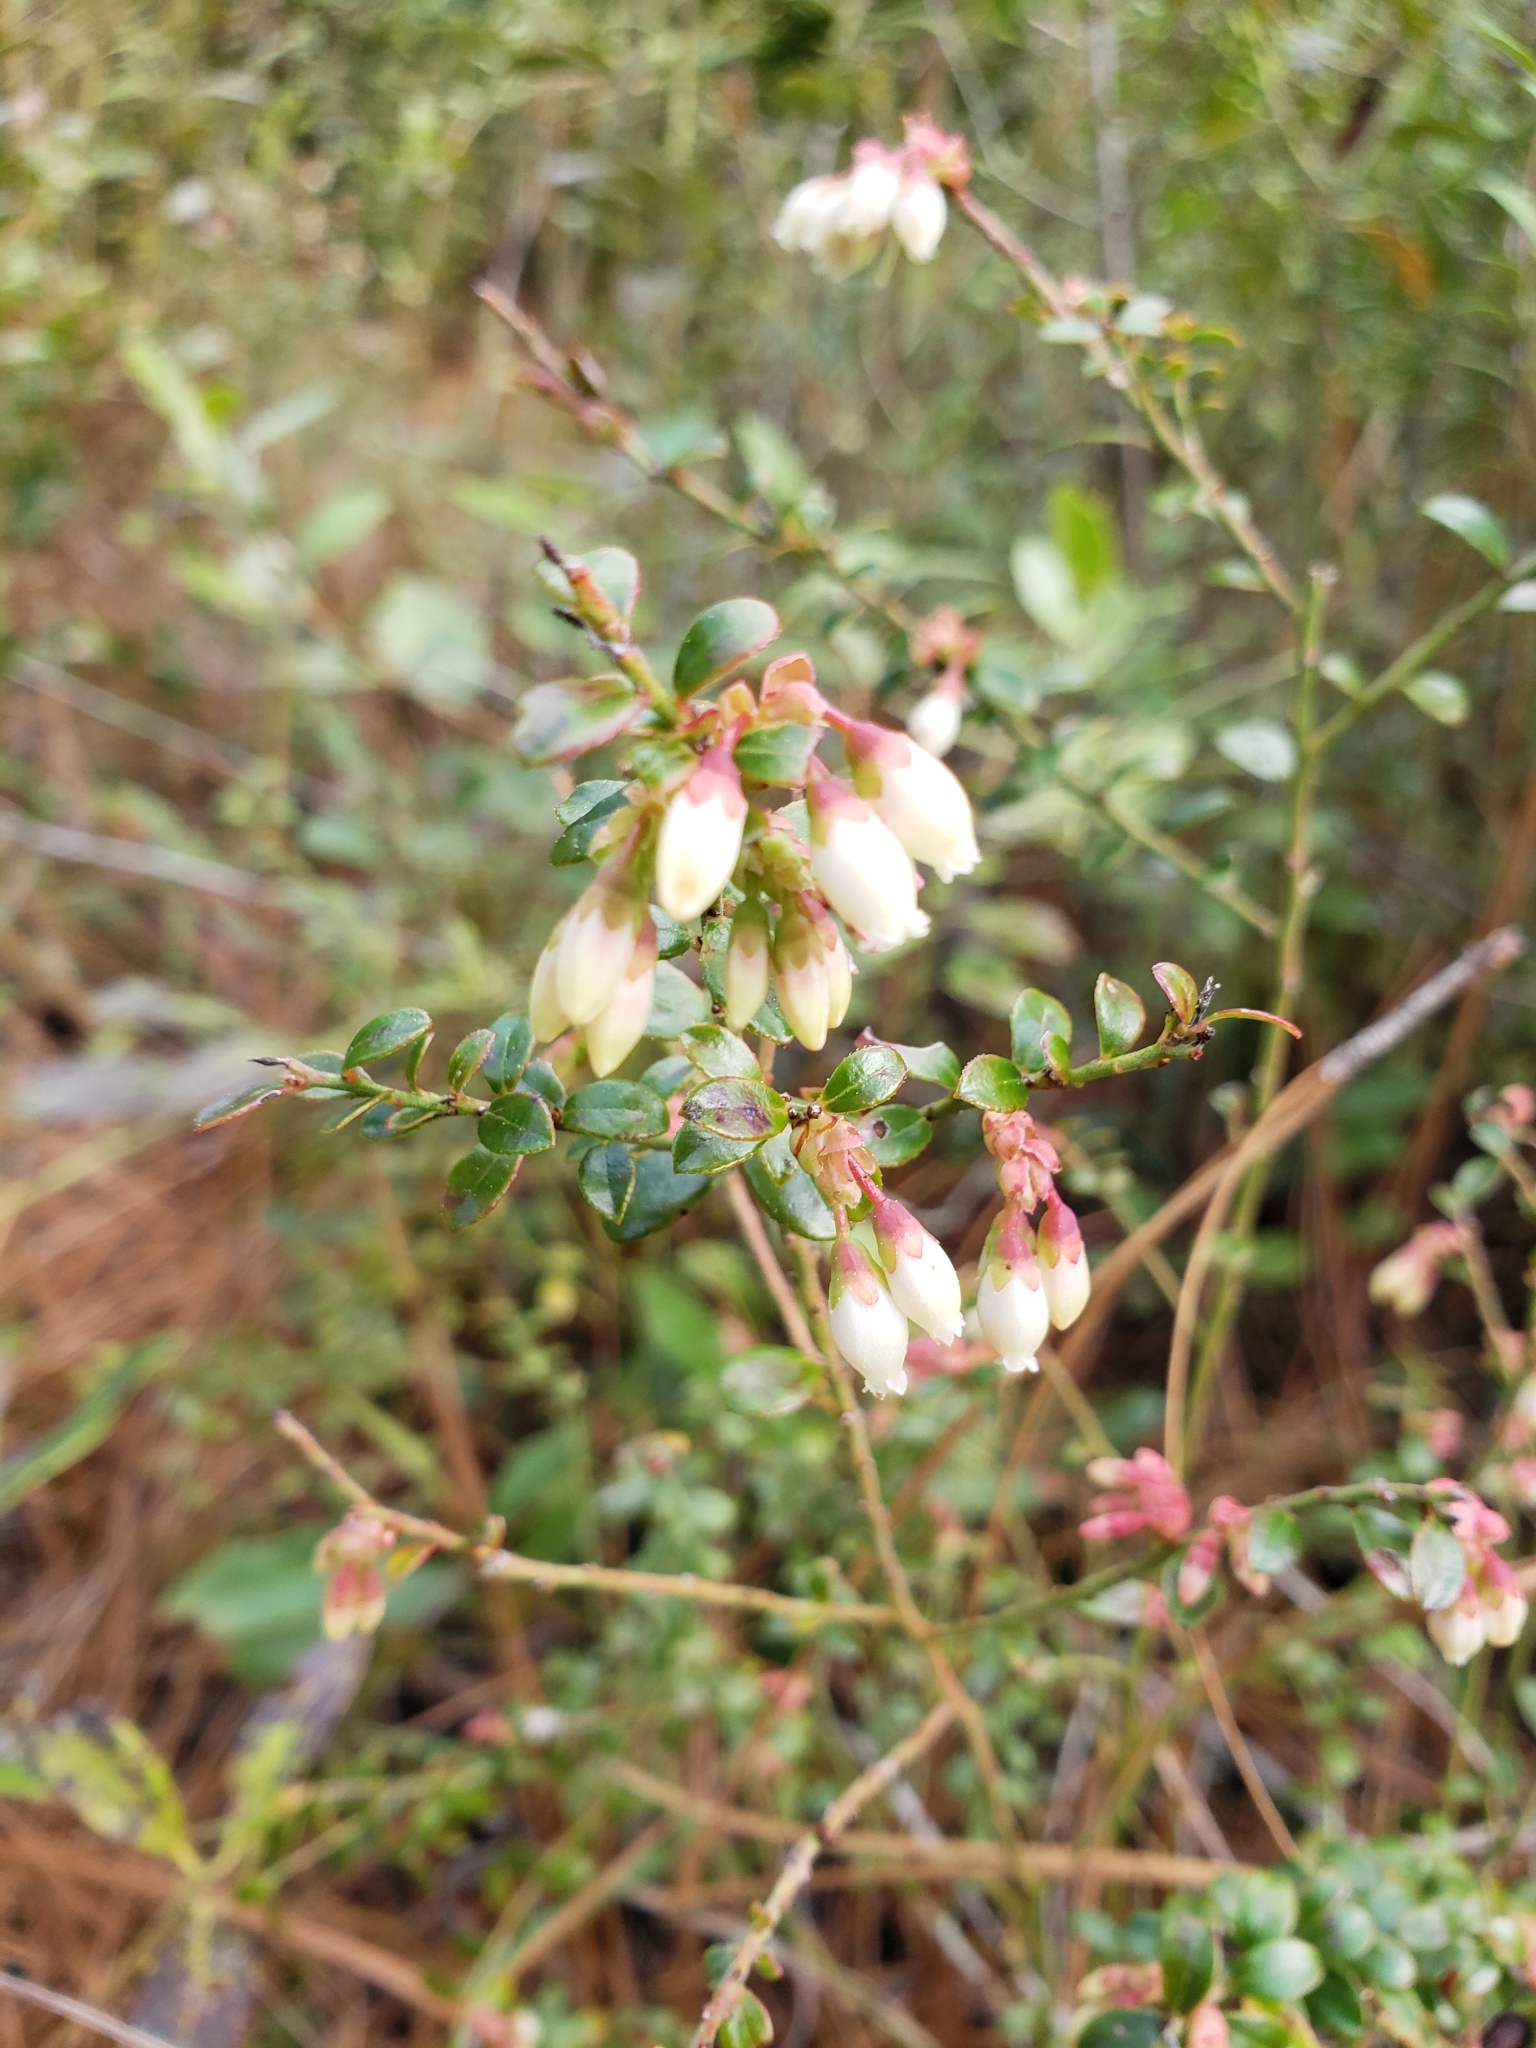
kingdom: Plantae
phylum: Tracheophyta
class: Magnoliopsida
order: Ericales
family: Ericaceae
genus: Vaccinium
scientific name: Vaccinium myrsinites
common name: Evergreen blueberry
